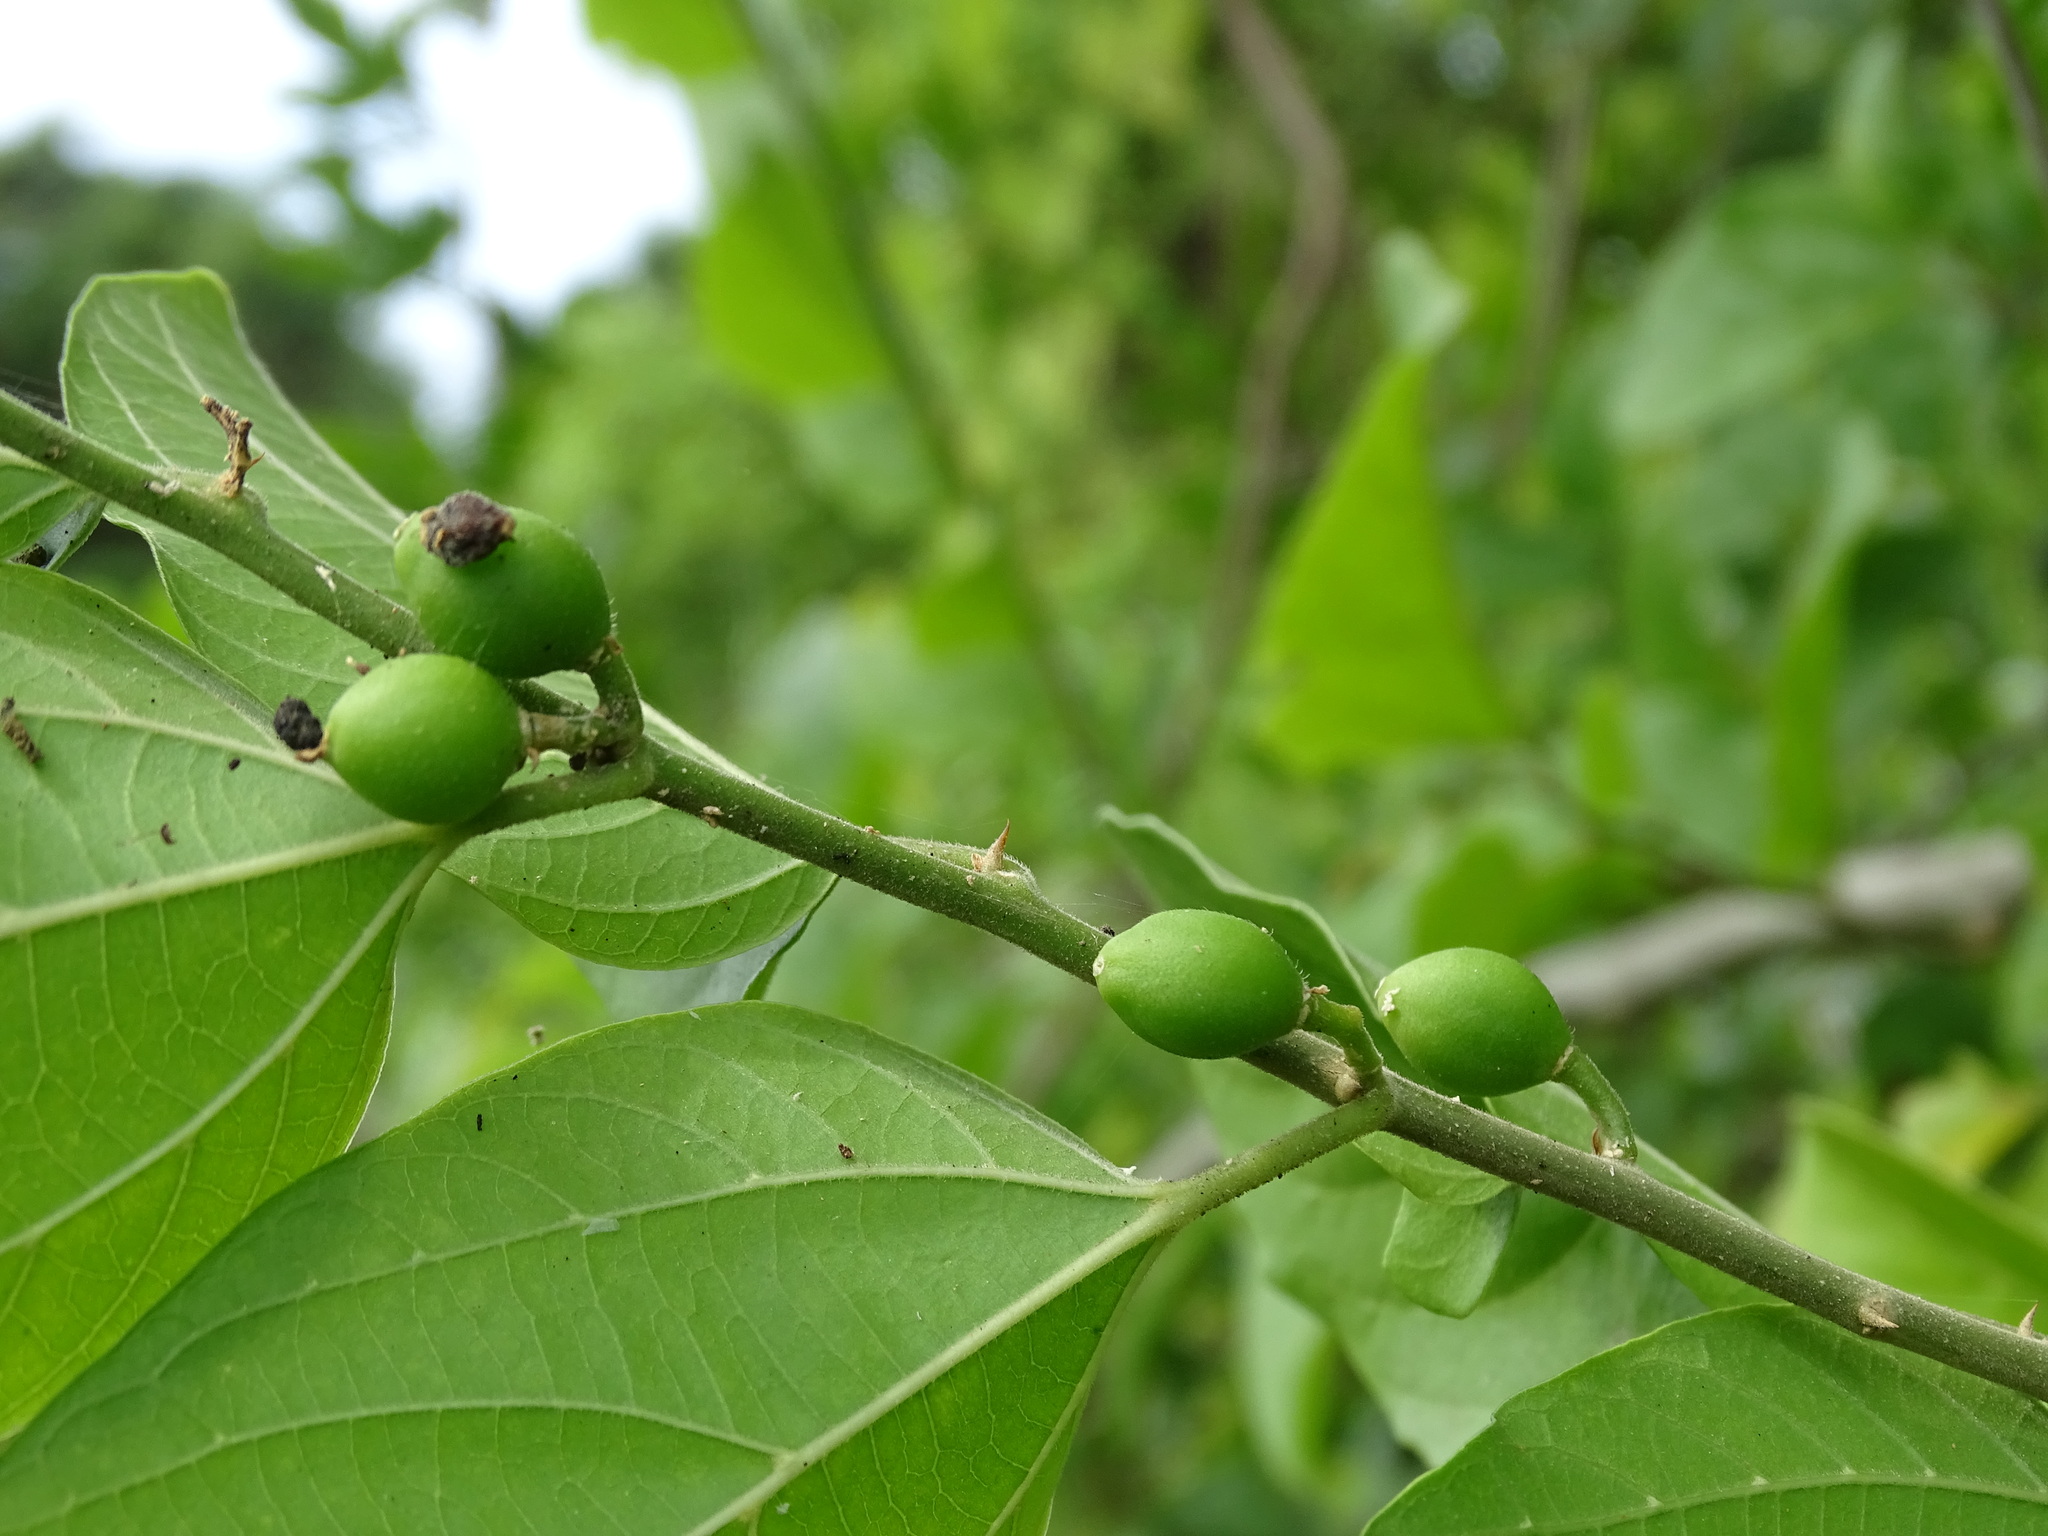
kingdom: Plantae
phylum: Tracheophyta
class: Magnoliopsida
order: Rosales
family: Cannabaceae
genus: Celtis
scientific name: Celtis iguanaea
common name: Iguana hackberry
